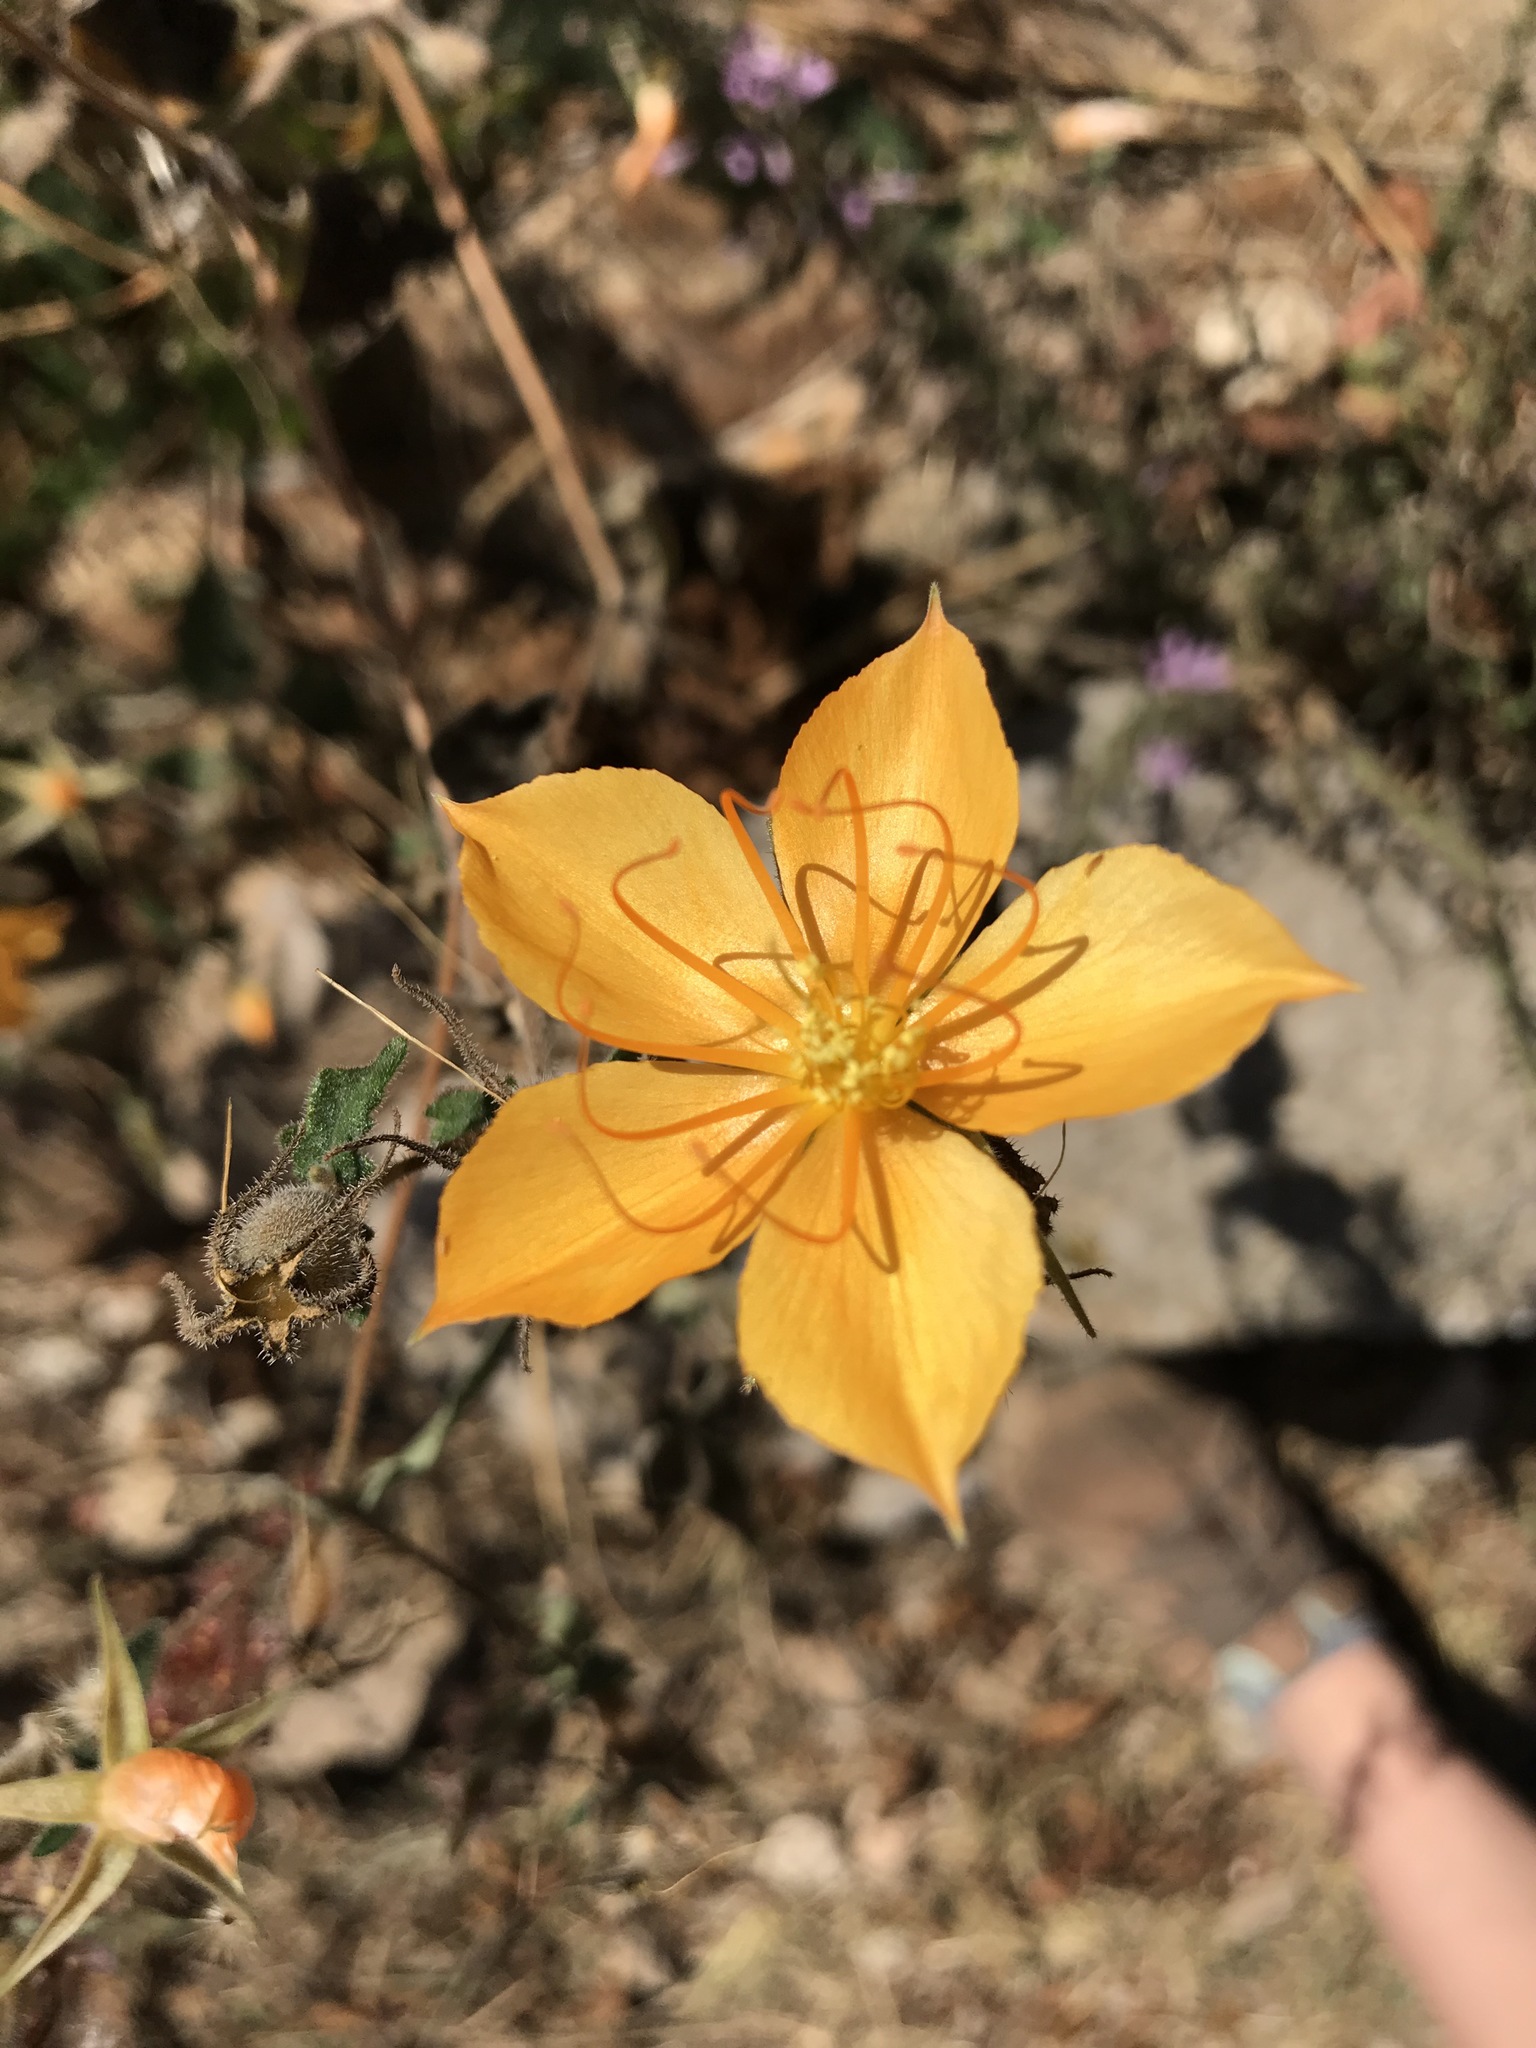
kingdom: Plantae
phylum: Tracheophyta
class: Magnoliopsida
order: Cornales
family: Loasaceae
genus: Mentzelia
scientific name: Mentzelia hispida
